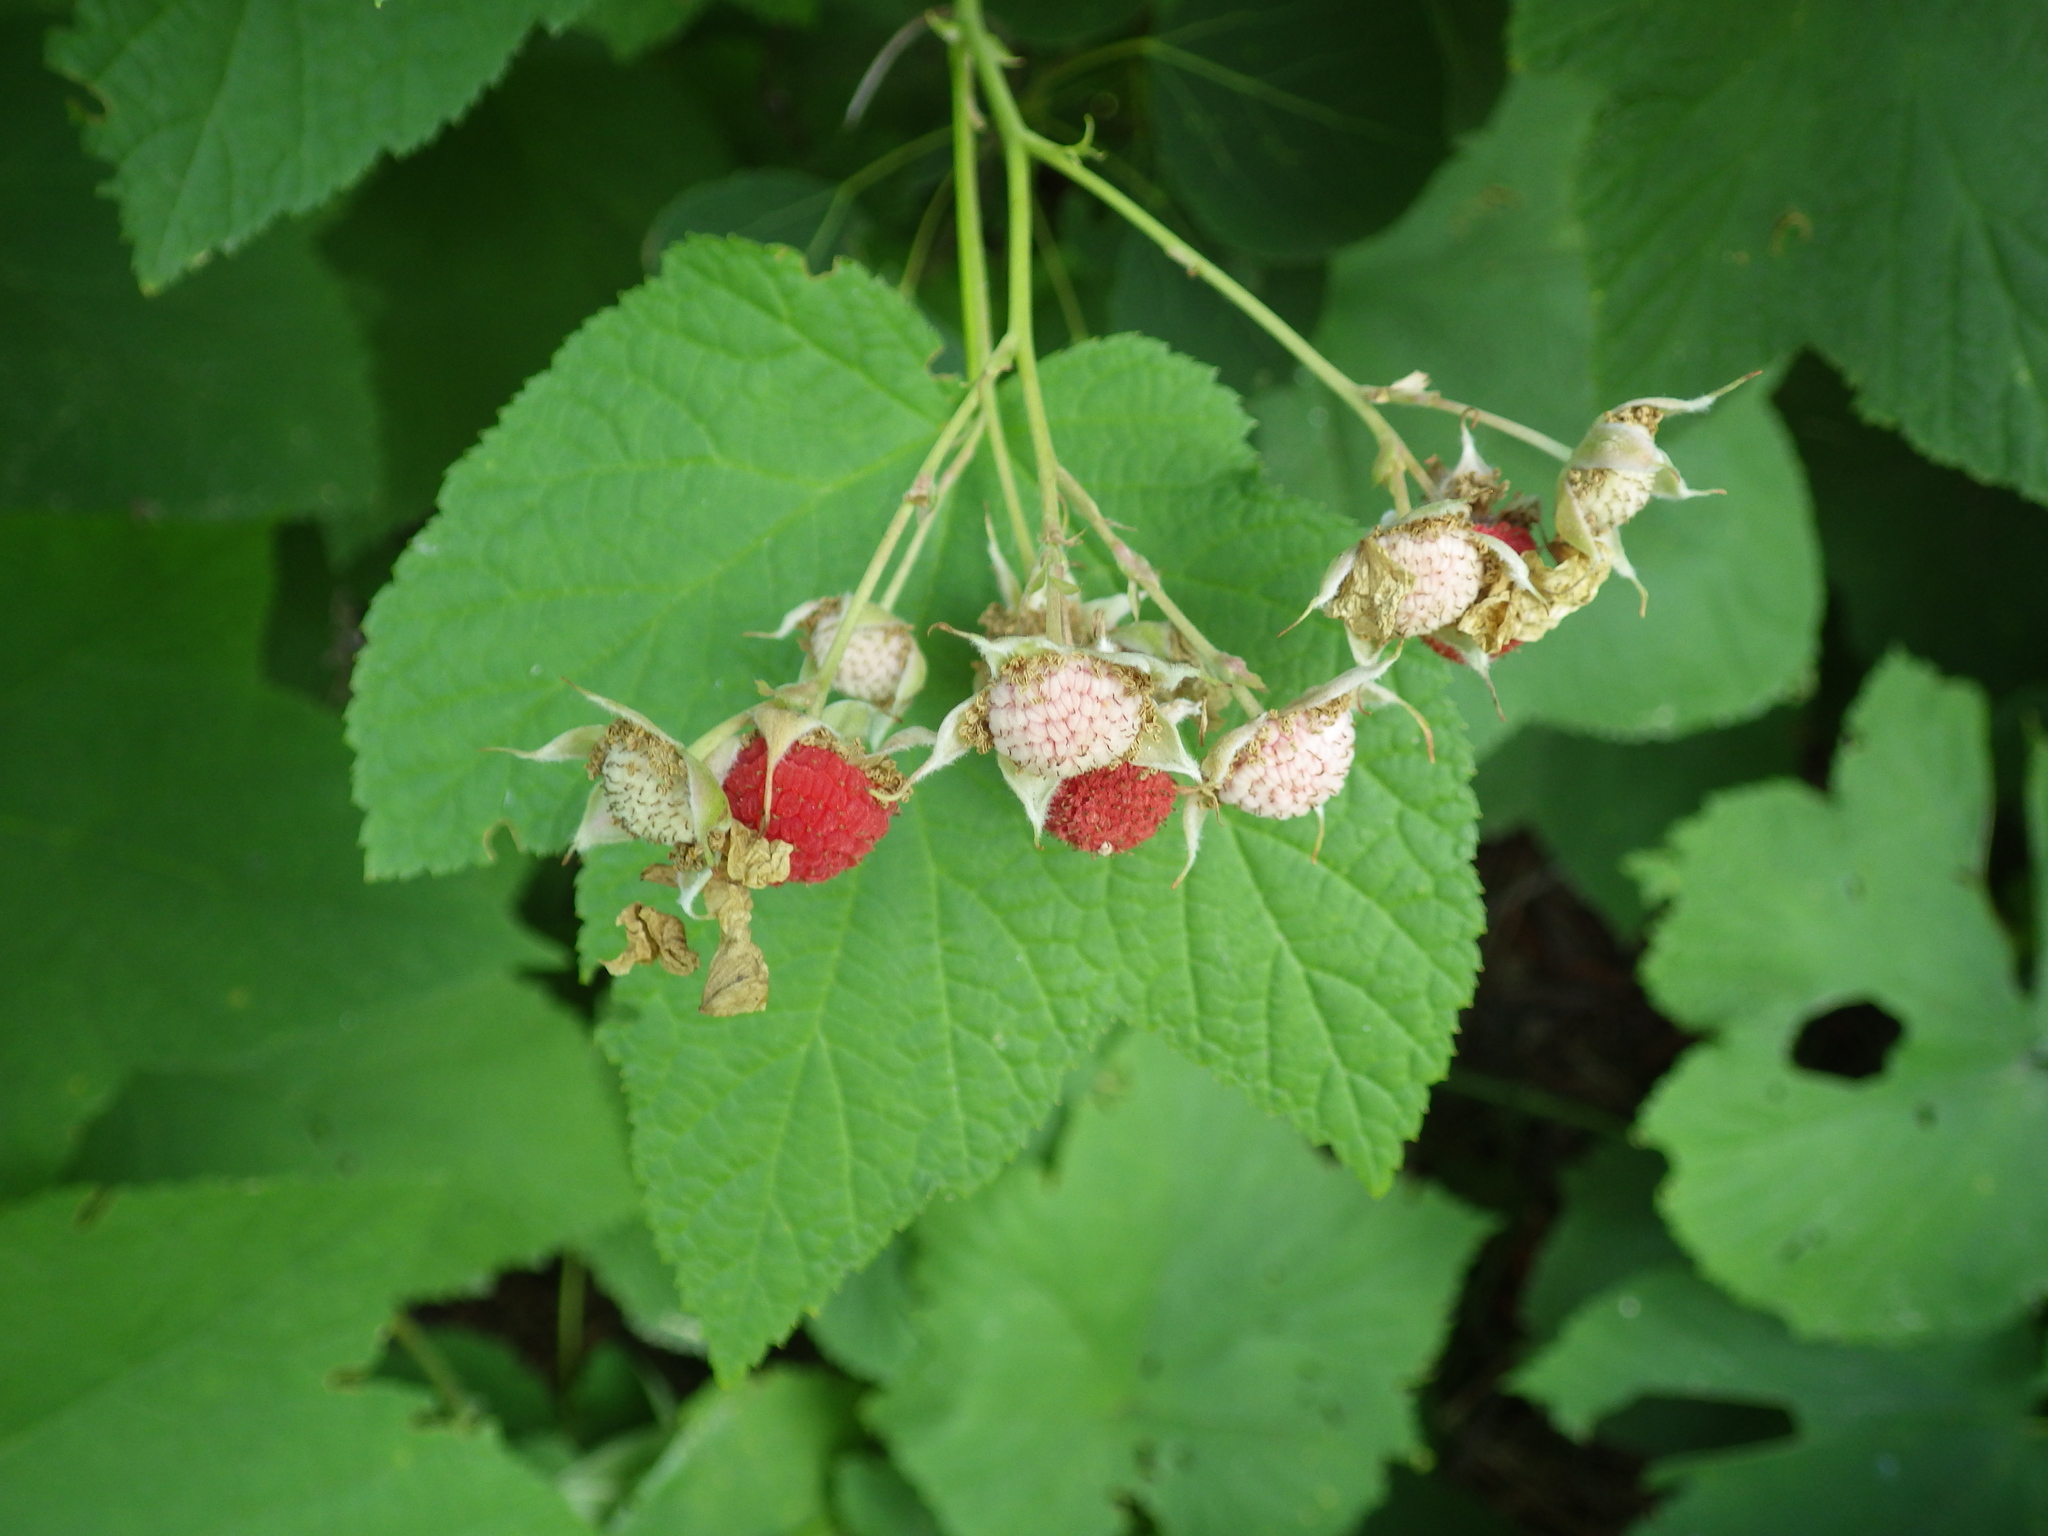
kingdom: Plantae
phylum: Tracheophyta
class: Magnoliopsida
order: Rosales
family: Rosaceae
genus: Rubus
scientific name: Rubus parviflorus
